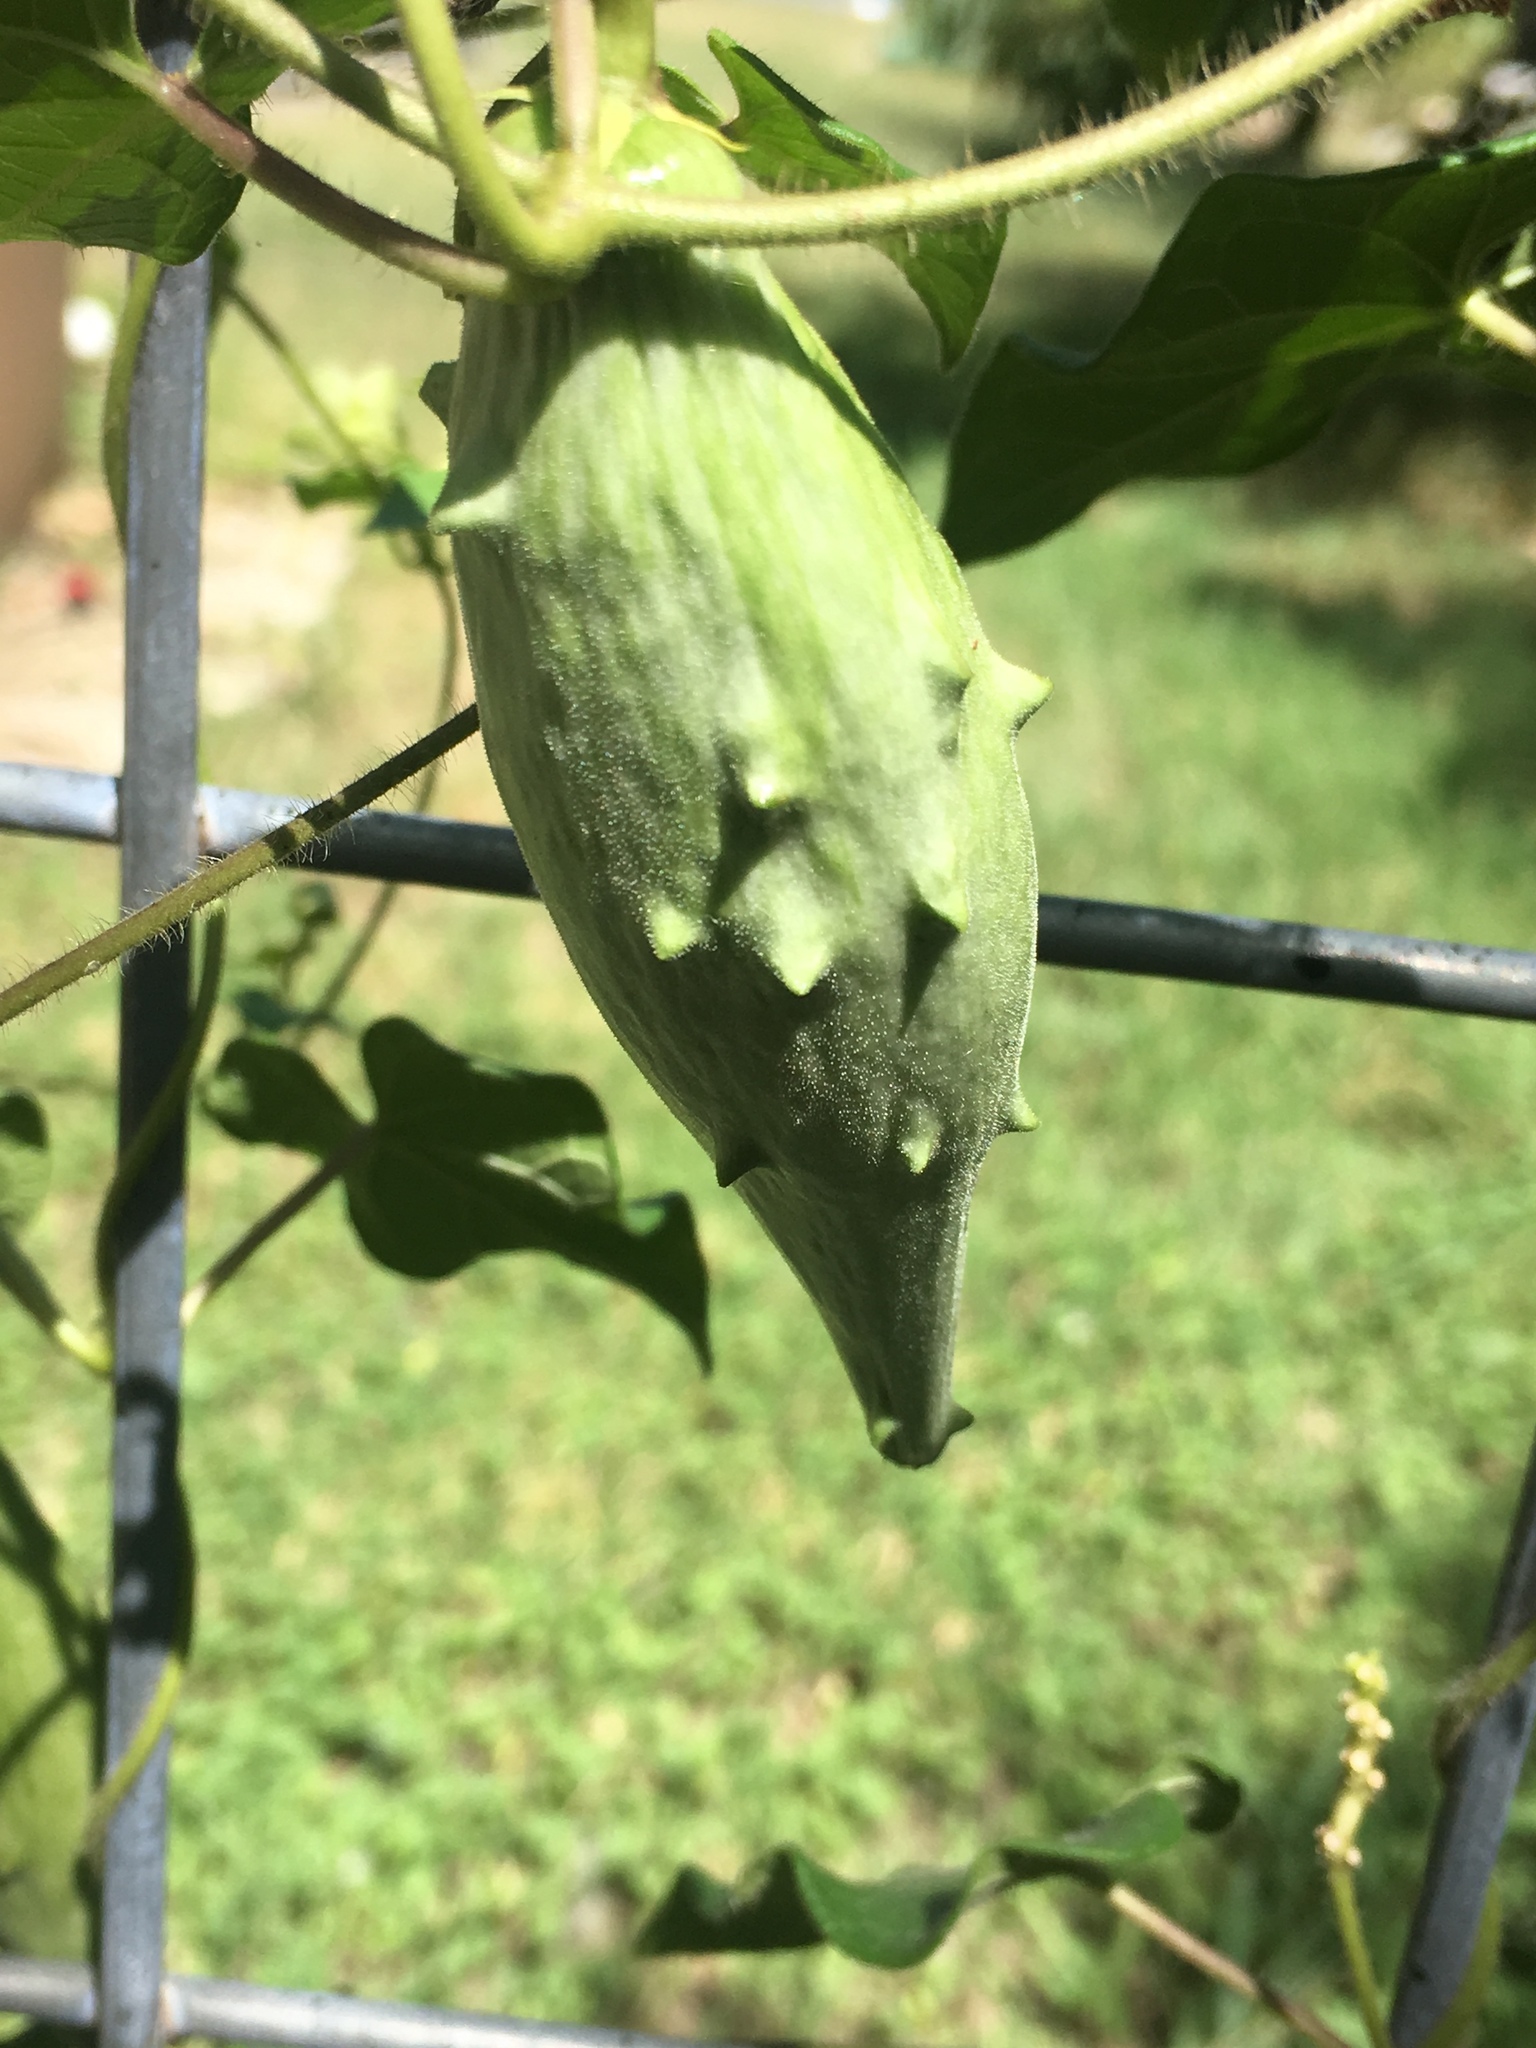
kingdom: Plantae
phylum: Tracheophyta
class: Magnoliopsida
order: Gentianales
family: Apocynaceae
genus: Dictyanthus
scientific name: Dictyanthus reticulatus
